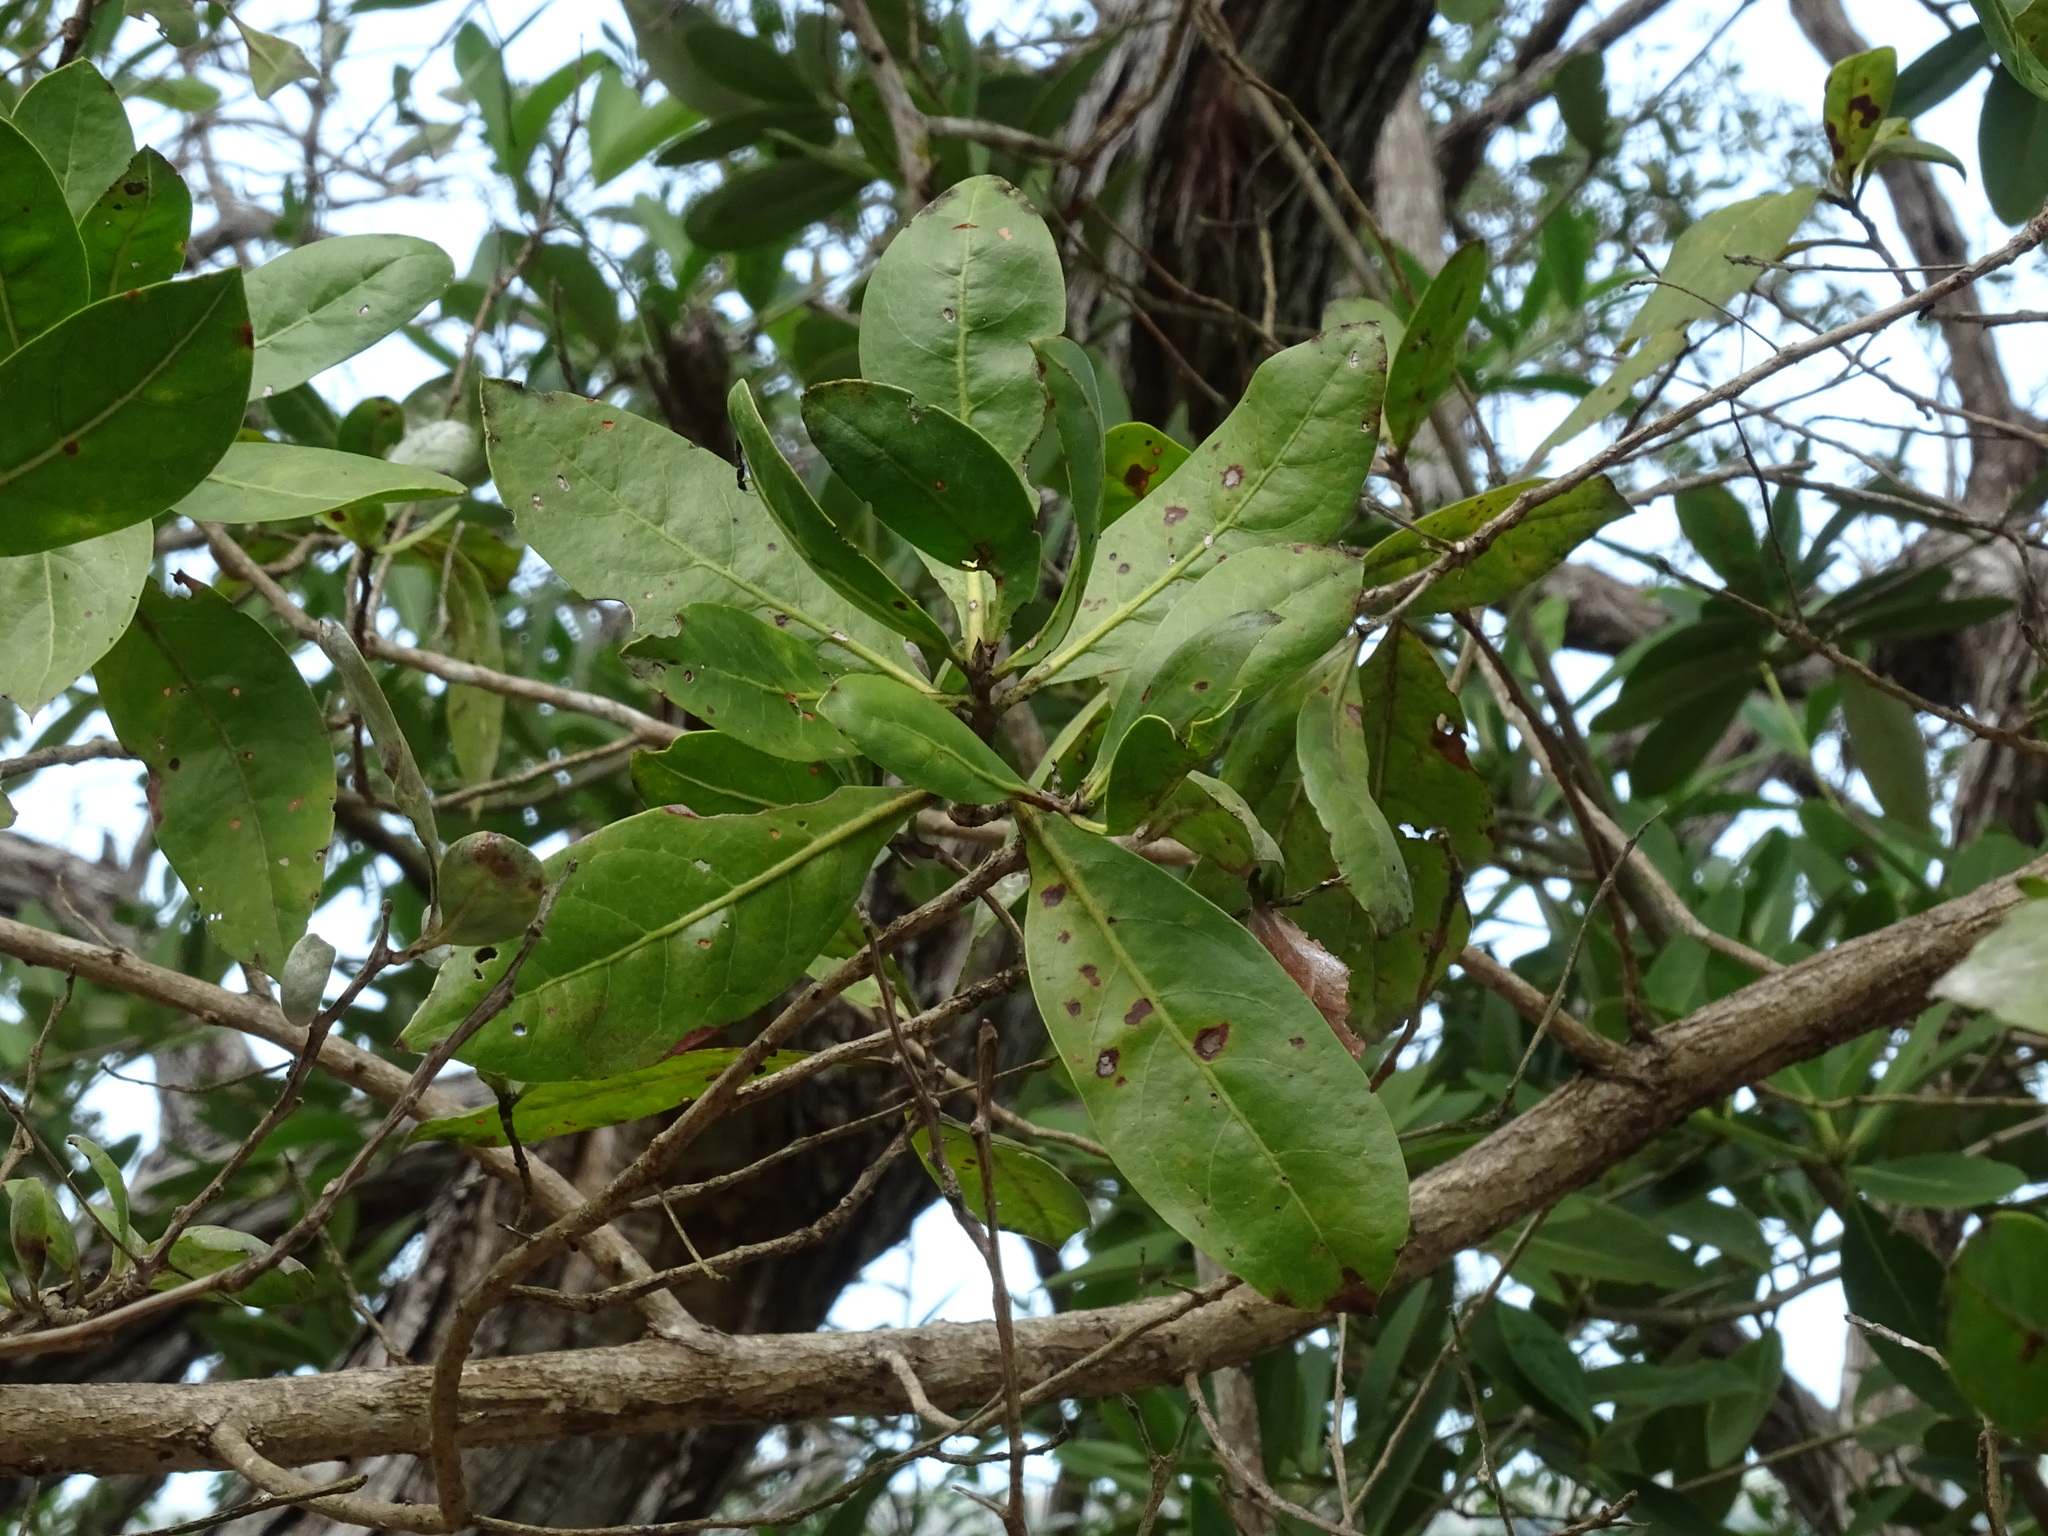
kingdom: Plantae
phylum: Tracheophyta
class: Magnoliopsida
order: Lamiales
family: Acanthaceae
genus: Avicennia
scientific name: Avicennia germinans
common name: Black mangrove
